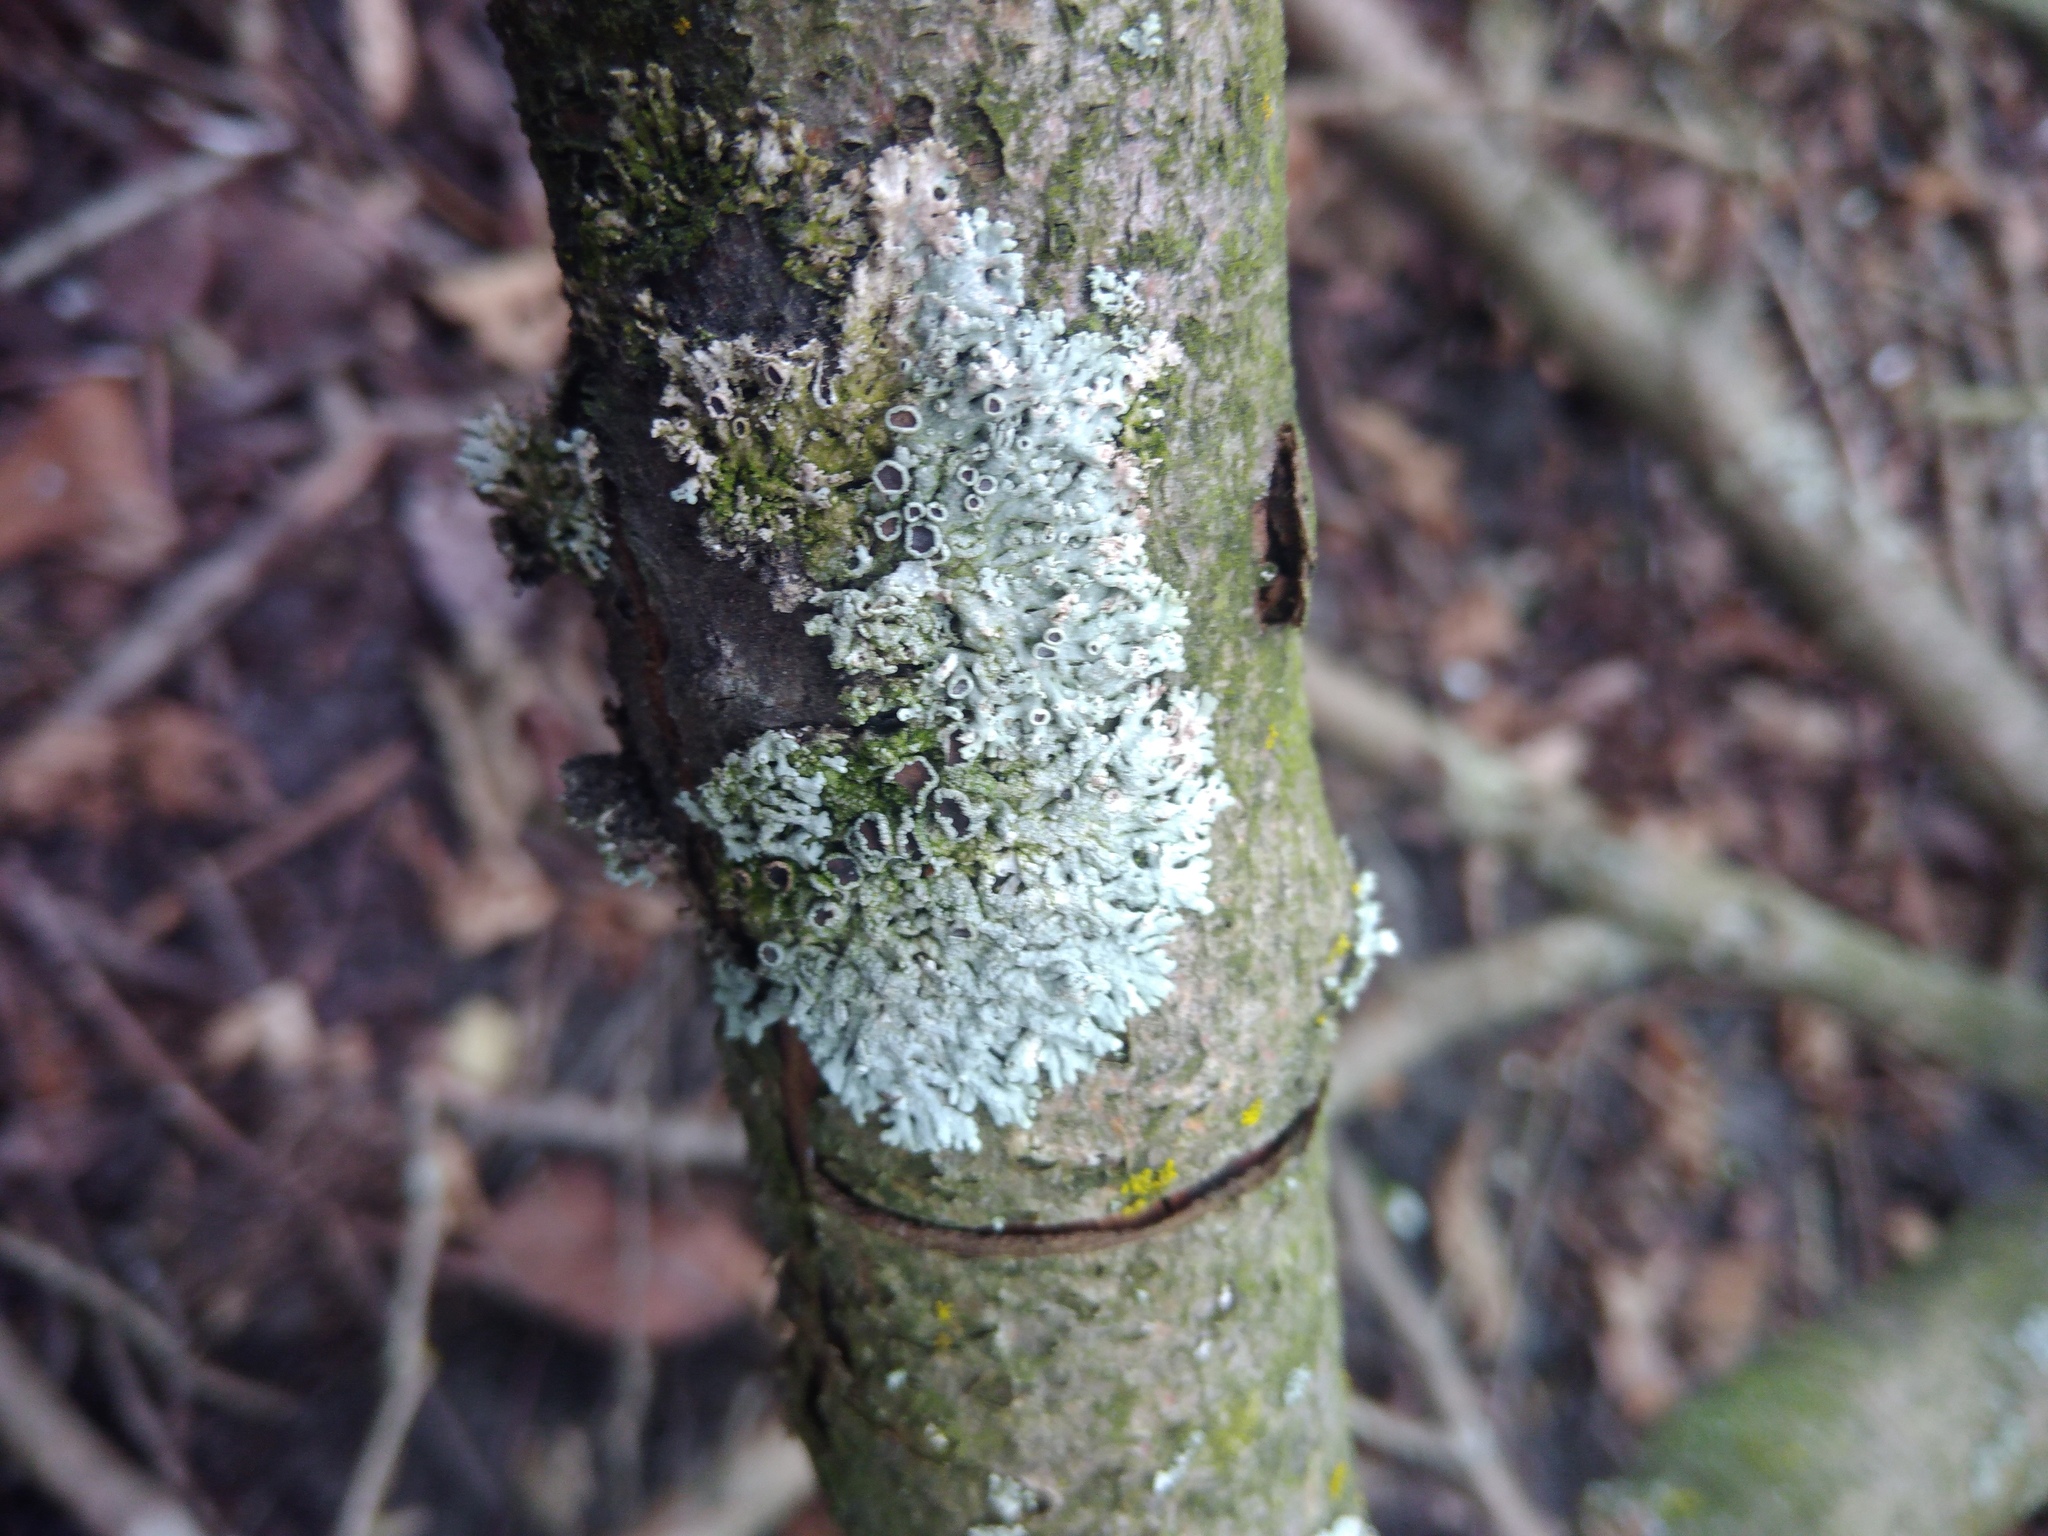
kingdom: Fungi
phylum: Ascomycota
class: Lecanoromycetes
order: Caliciales
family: Physciaceae
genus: Physcia
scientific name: Physcia stellaris
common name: Star rosette lichen
